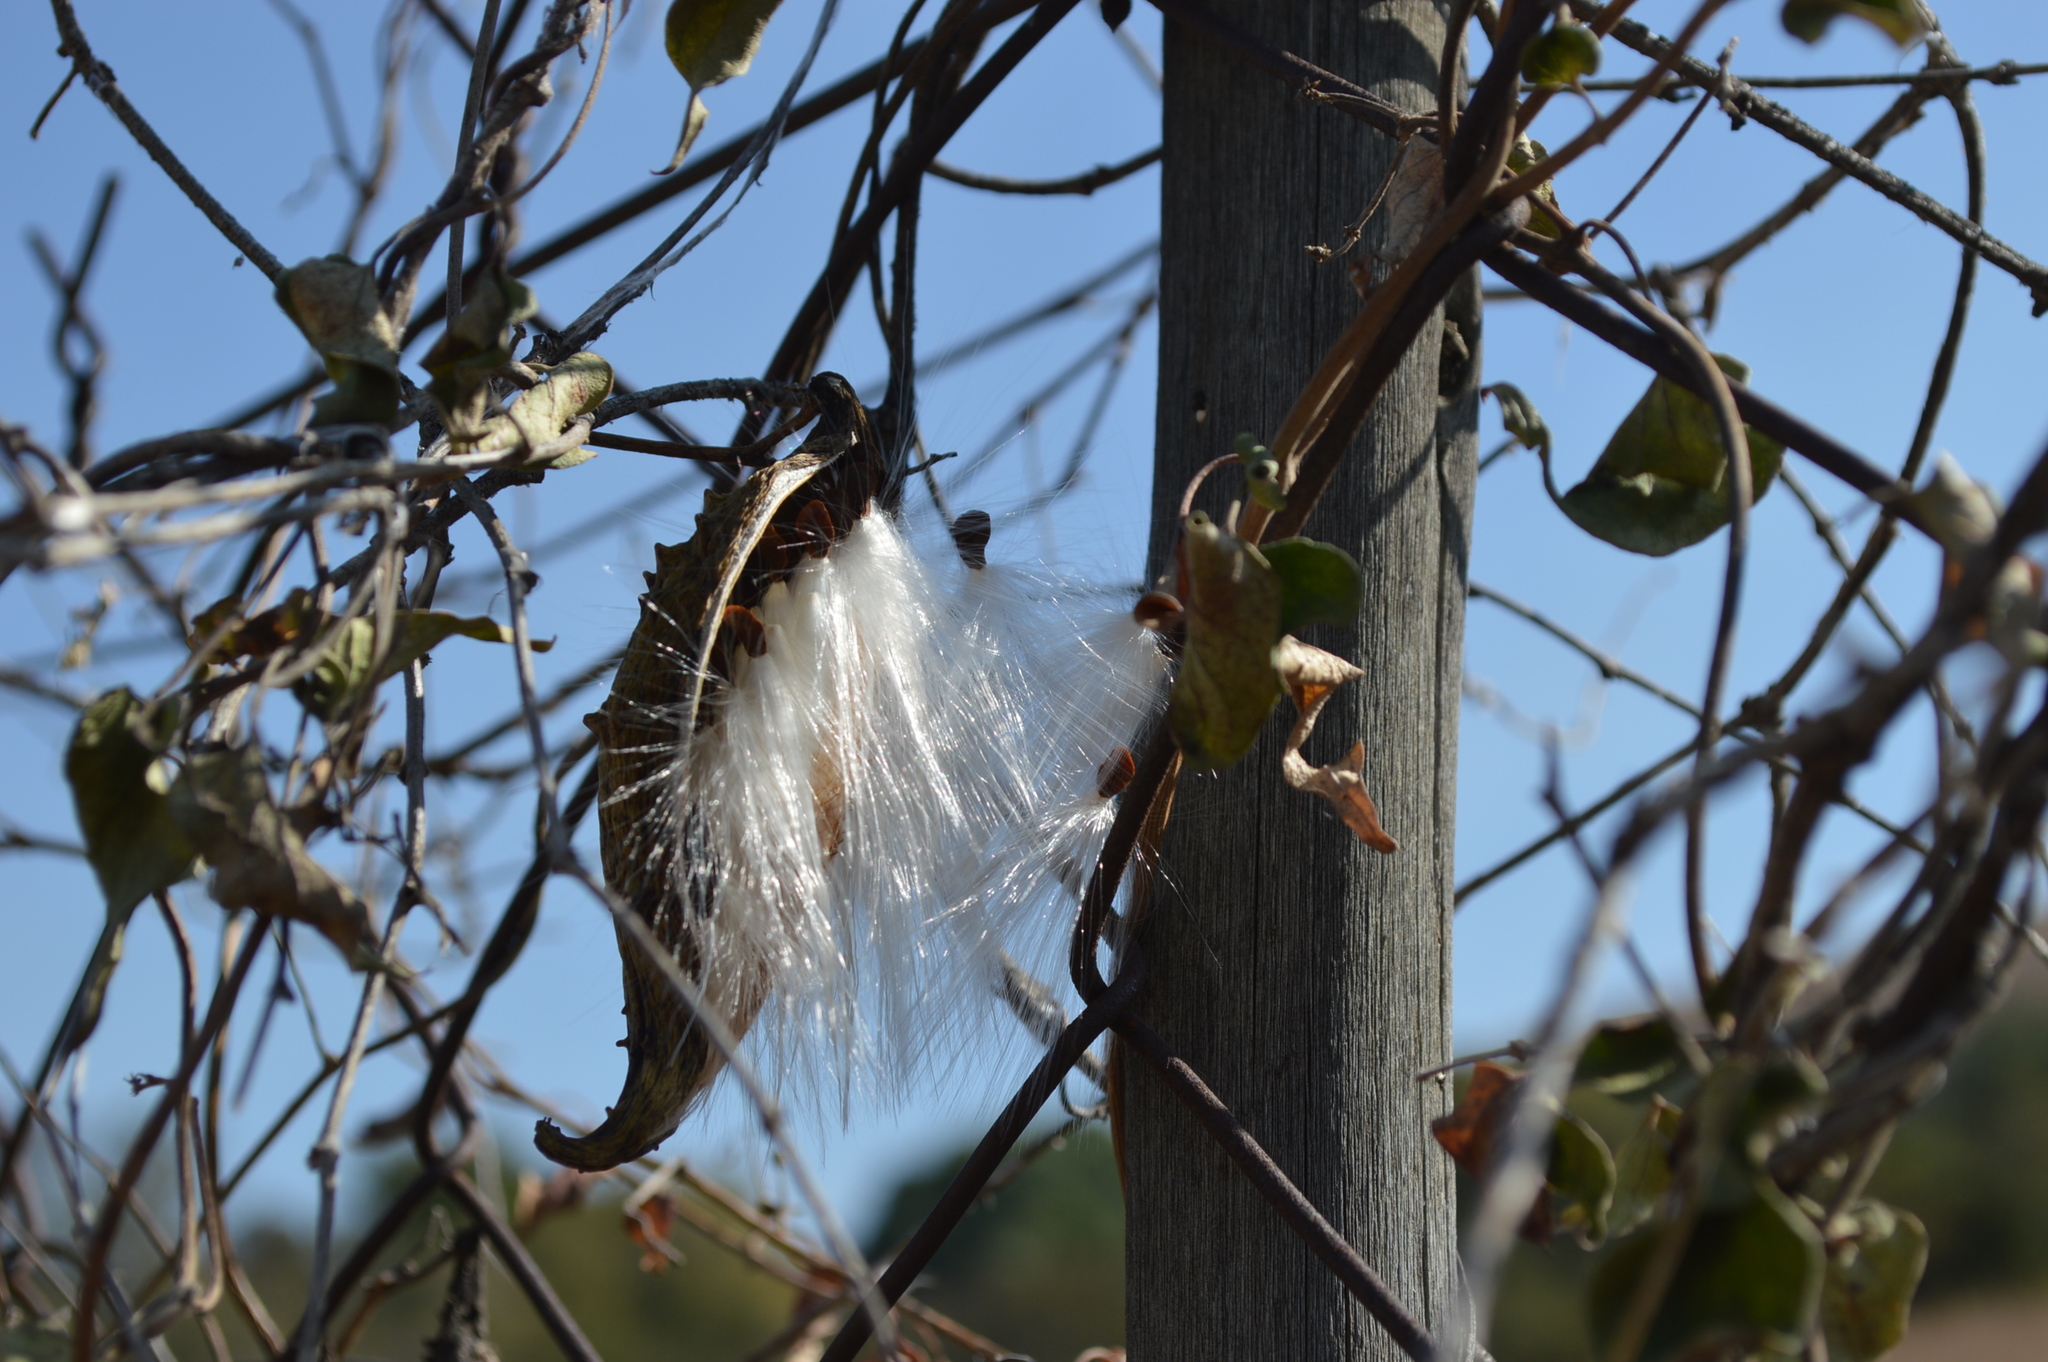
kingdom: Plantae
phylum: Tracheophyta
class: Magnoliopsida
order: Gentianales
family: Apocynaceae
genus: Cynanchum
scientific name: Cynanchum
